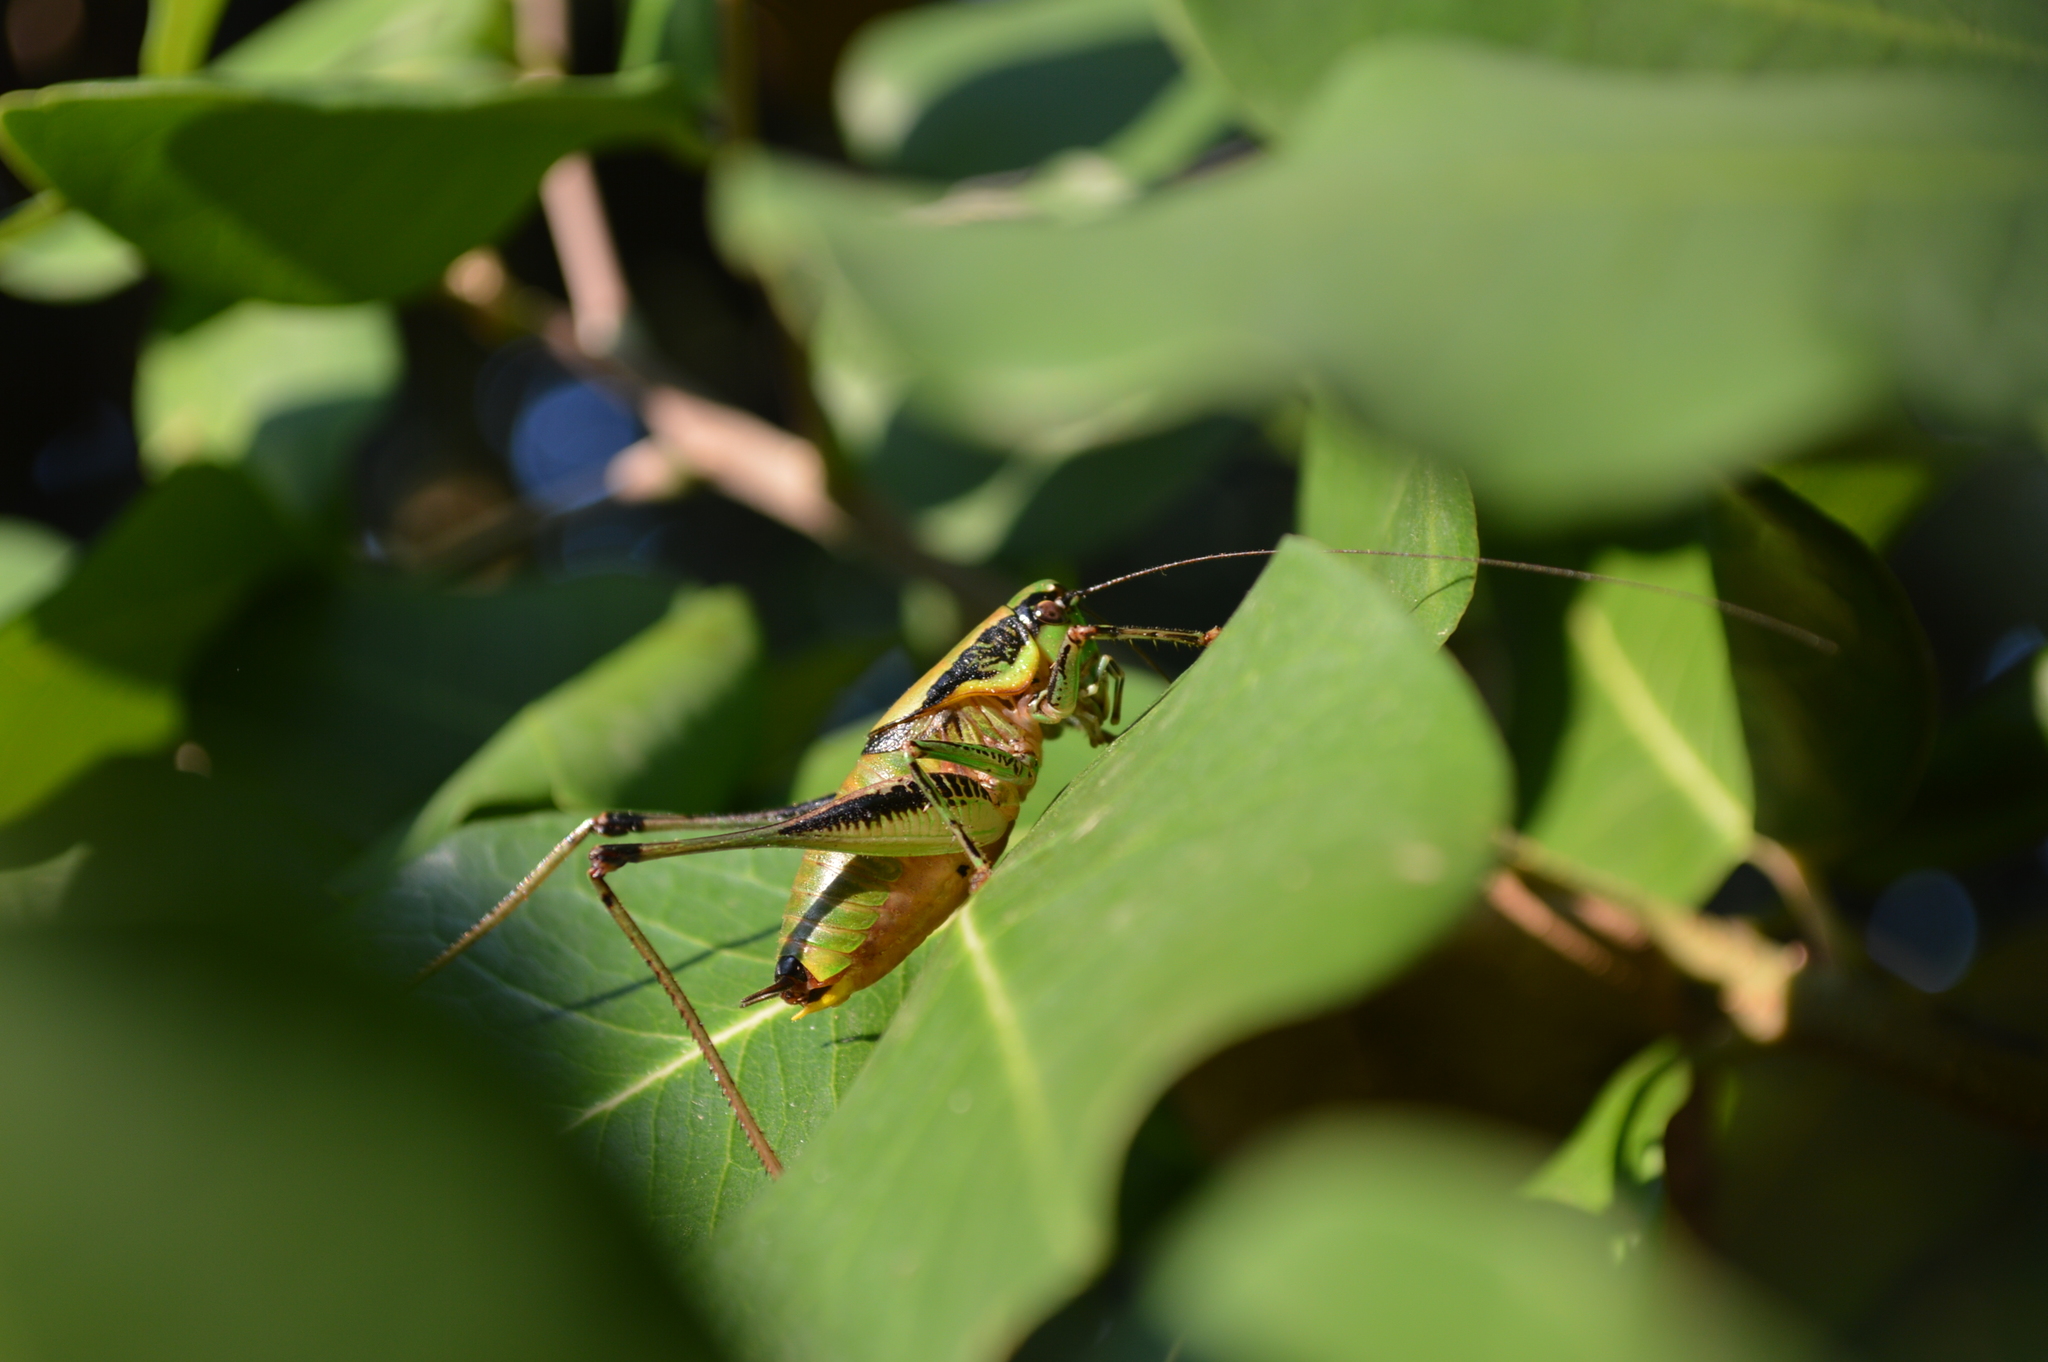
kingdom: Animalia
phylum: Arthropoda
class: Insecta
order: Orthoptera
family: Tettigoniidae
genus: Eupholidoptera
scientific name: Eupholidoptera schmidti
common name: Schmidt's marbled bush-cricket
